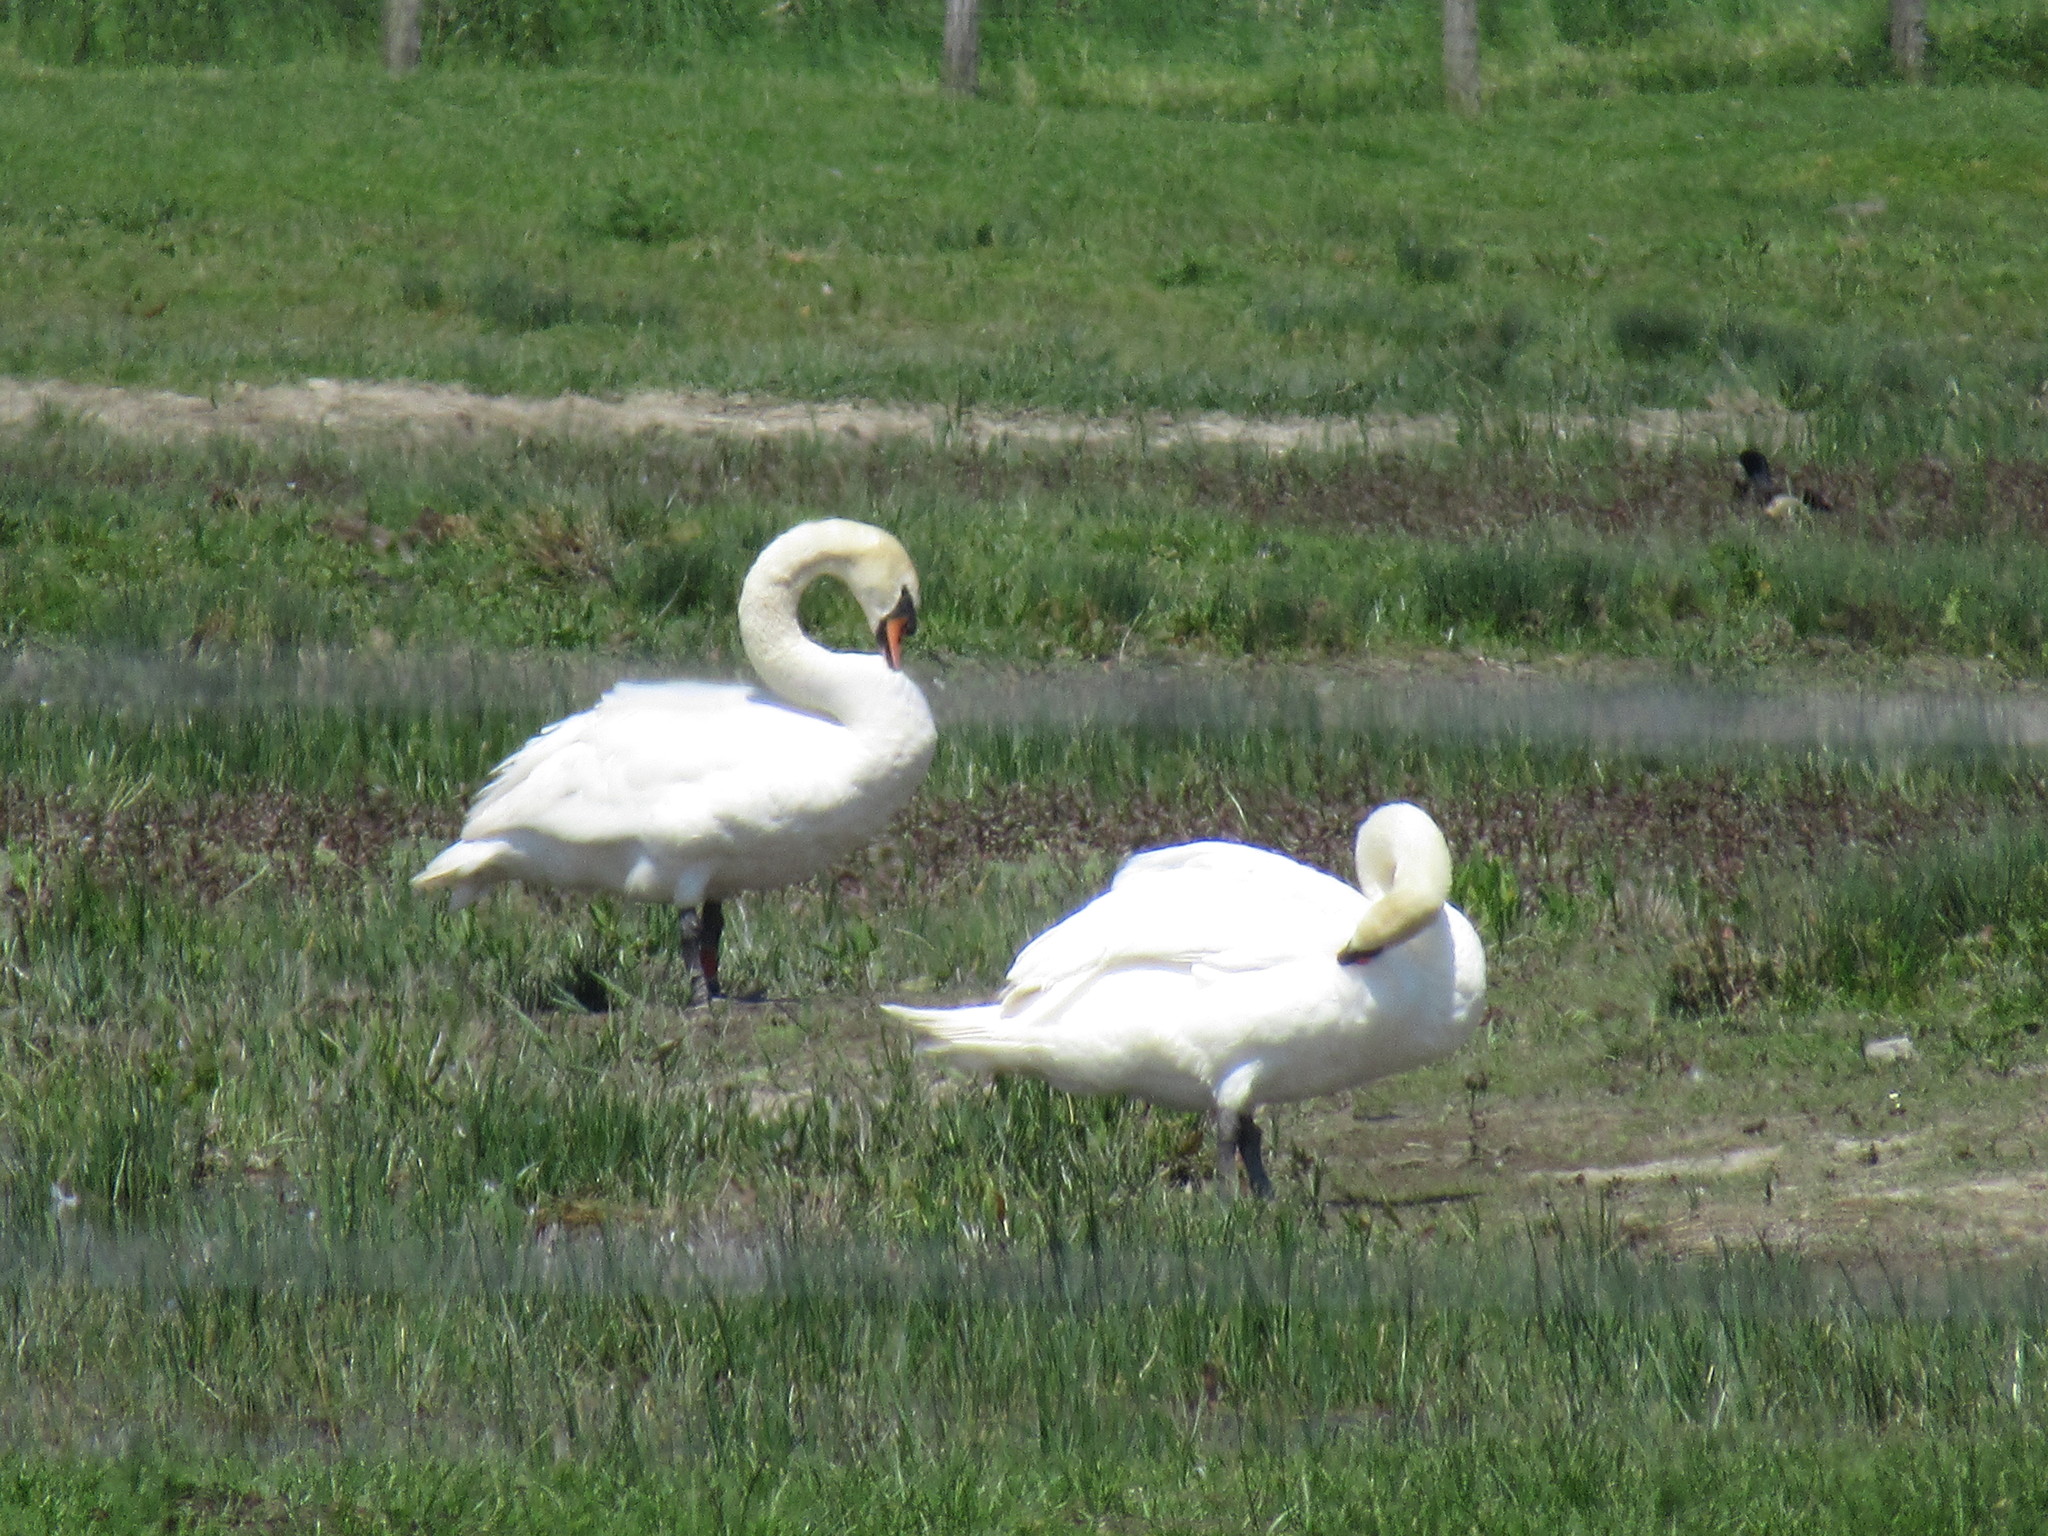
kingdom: Animalia
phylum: Chordata
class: Aves
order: Anseriformes
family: Anatidae
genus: Cygnus
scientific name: Cygnus olor
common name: Mute swan
